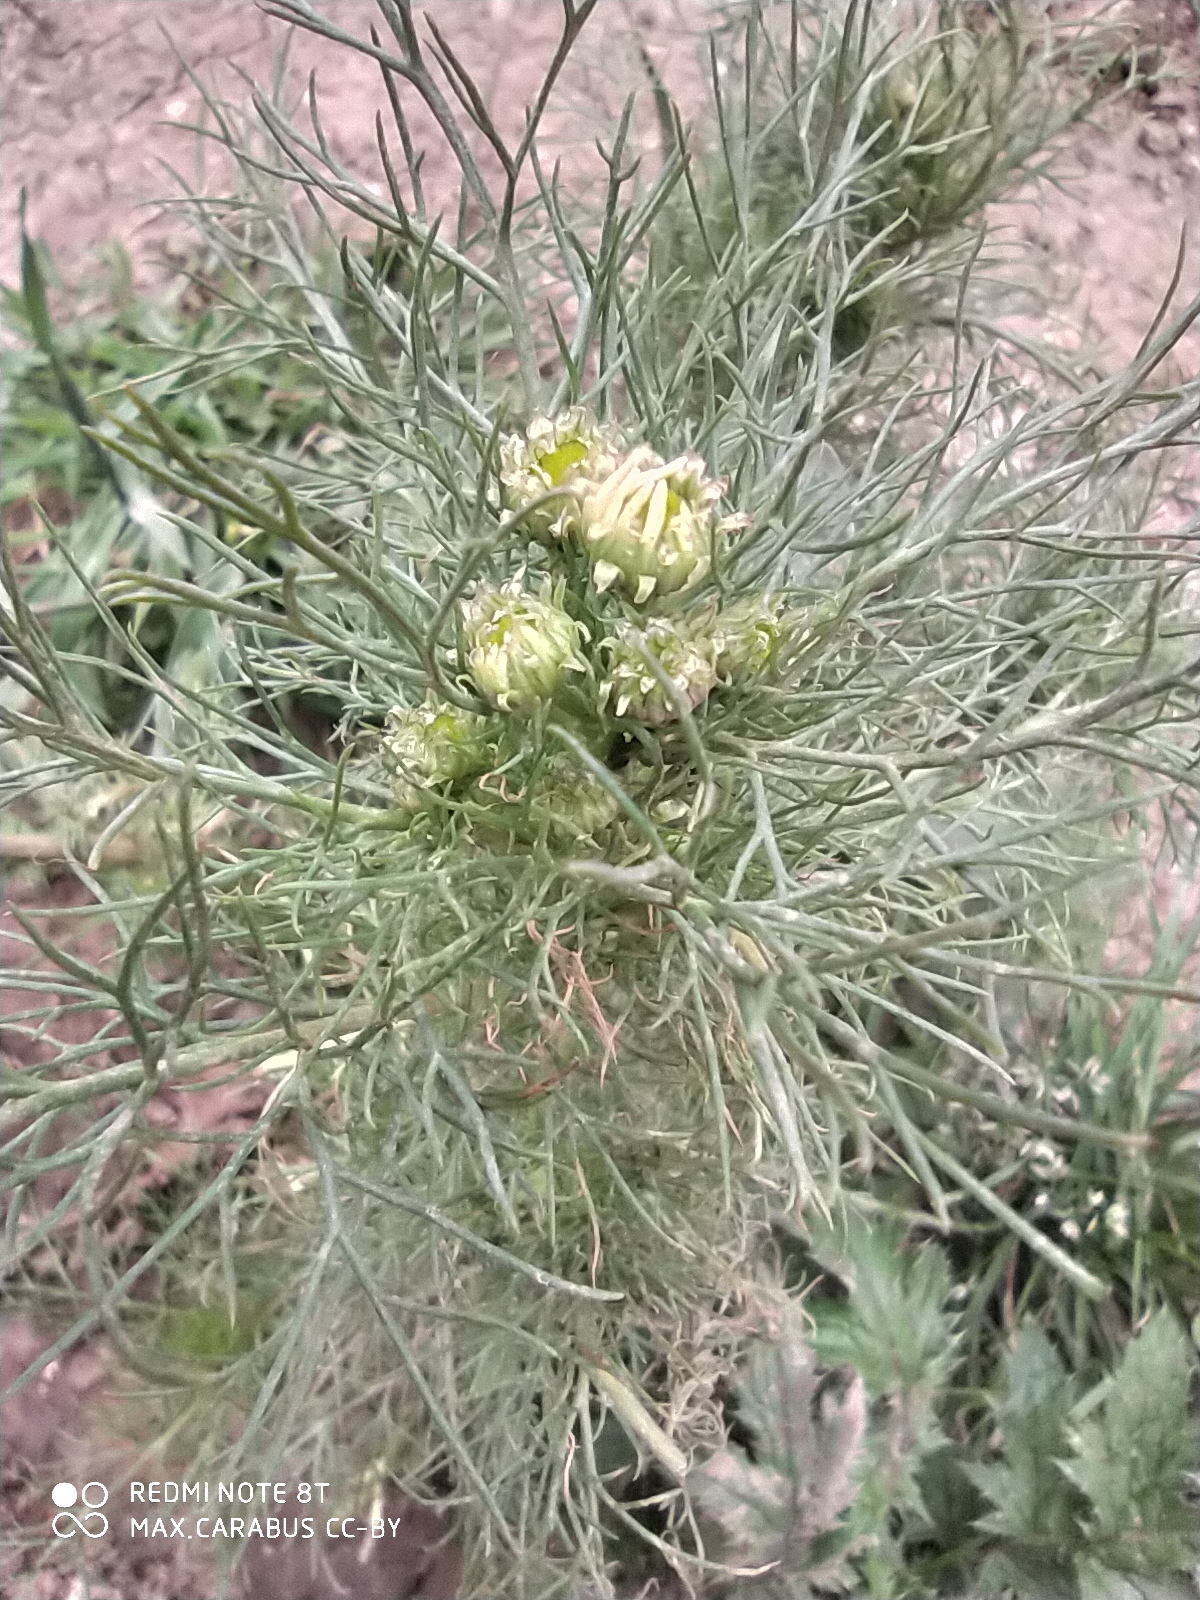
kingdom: Plantae
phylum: Tracheophyta
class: Magnoliopsida
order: Asterales
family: Asteraceae
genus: Tripleurospermum
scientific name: Tripleurospermum inodorum
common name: Scentless mayweed
